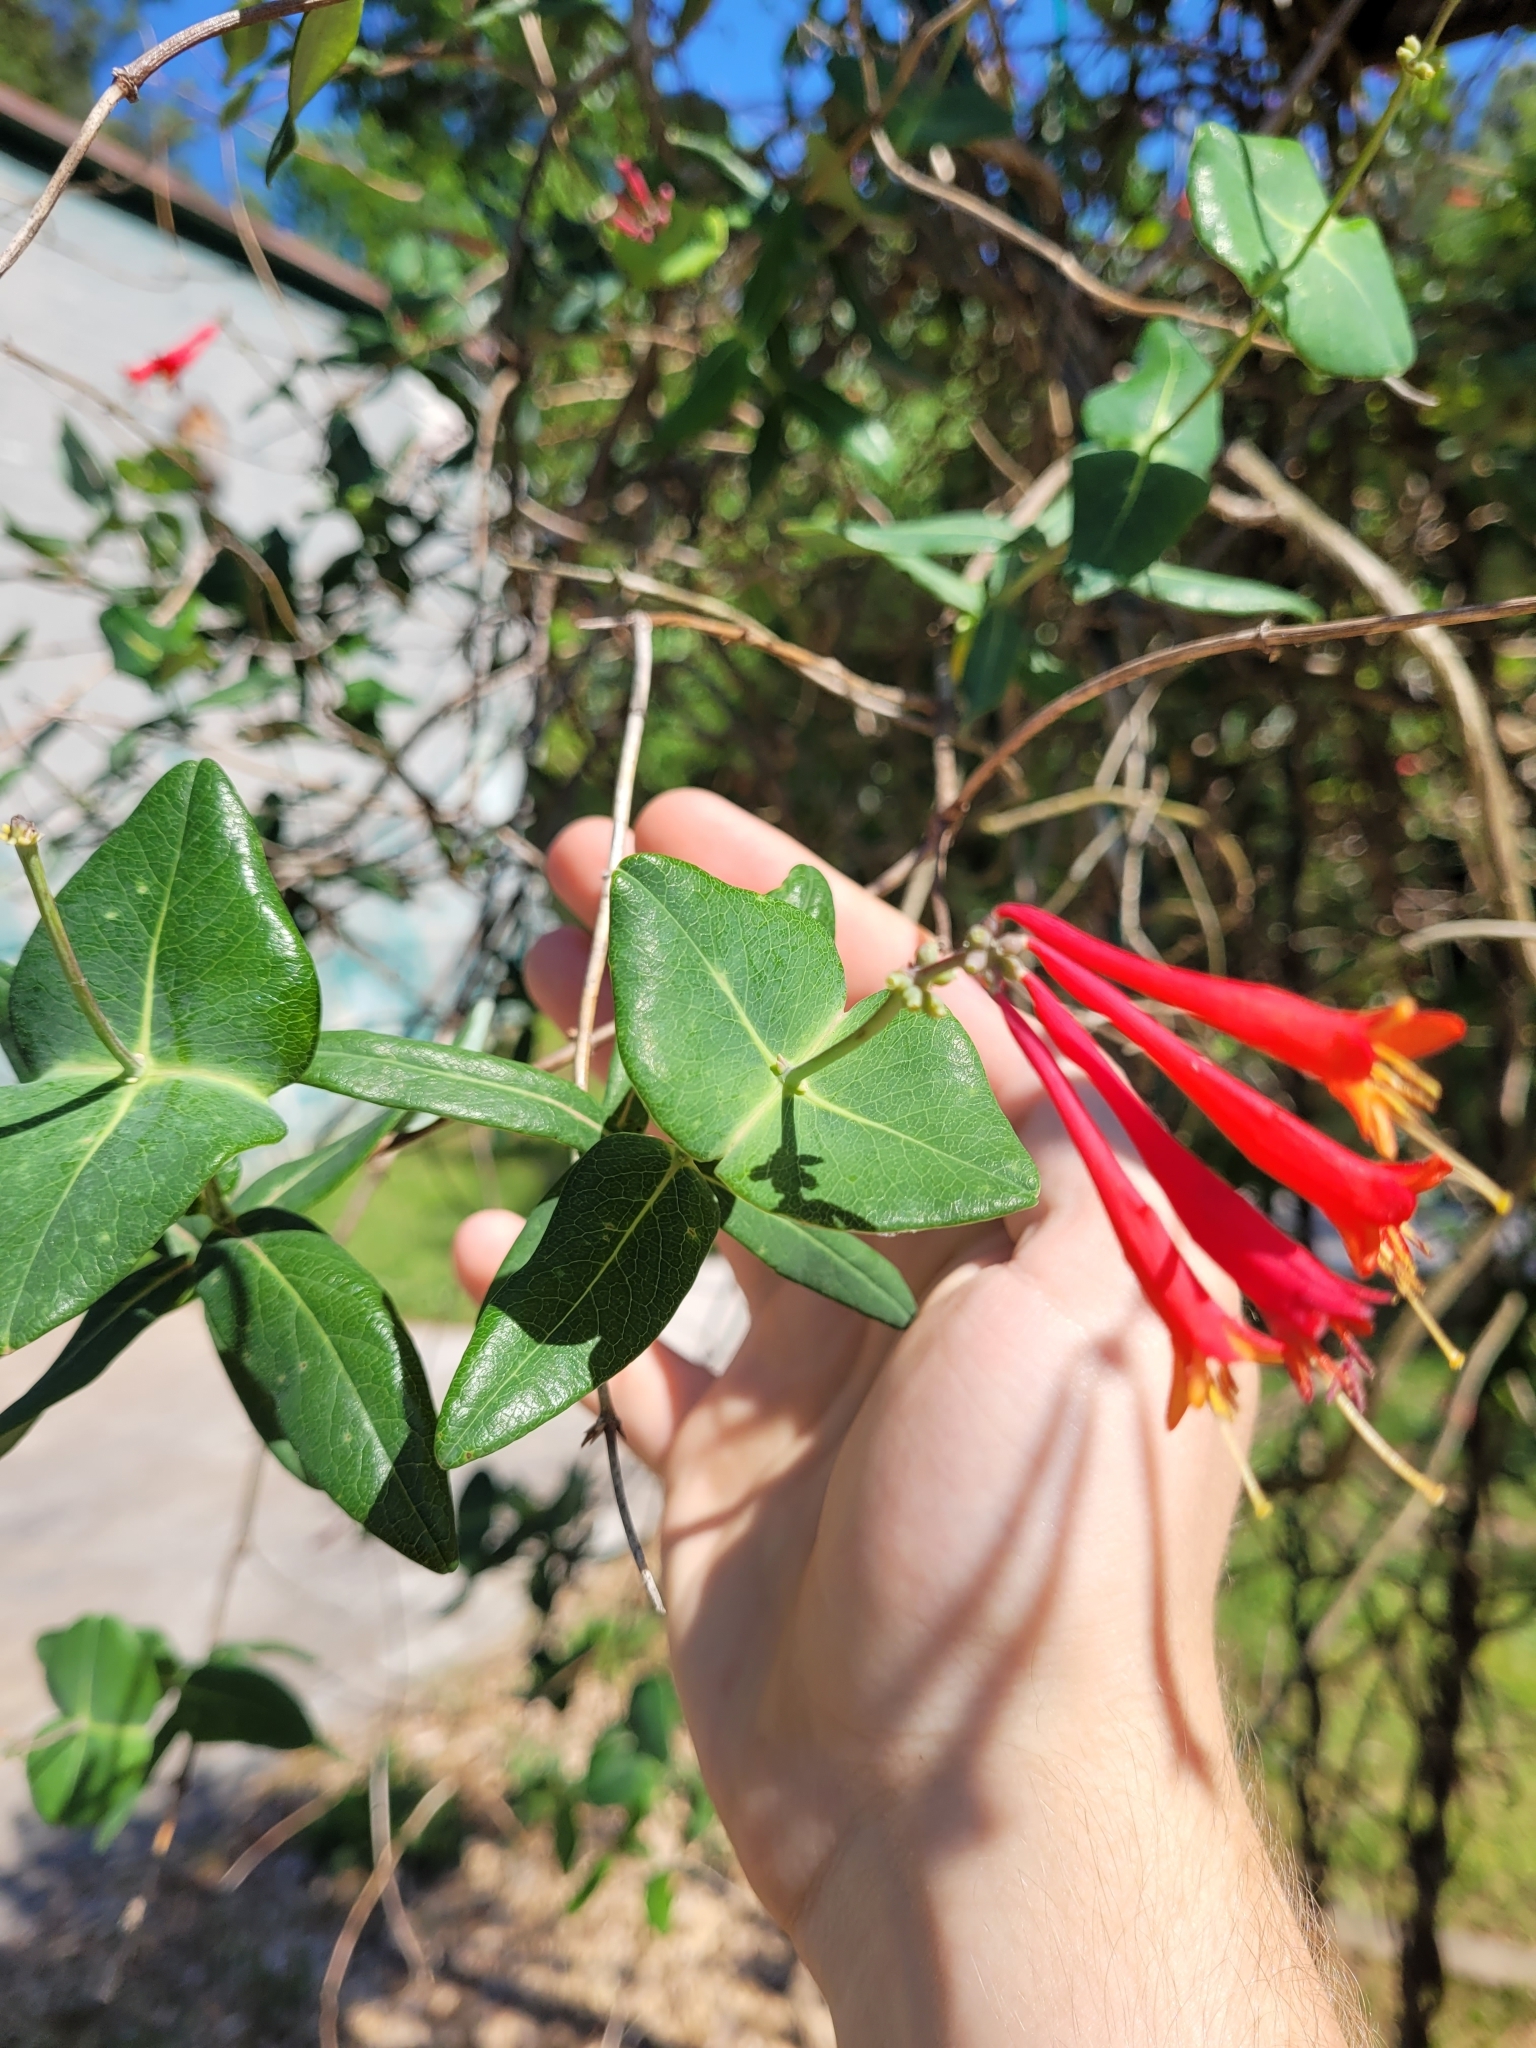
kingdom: Plantae
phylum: Tracheophyta
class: Magnoliopsida
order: Dipsacales
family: Caprifoliaceae
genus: Lonicera
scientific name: Lonicera sempervirens
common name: Coral honeysuckle
